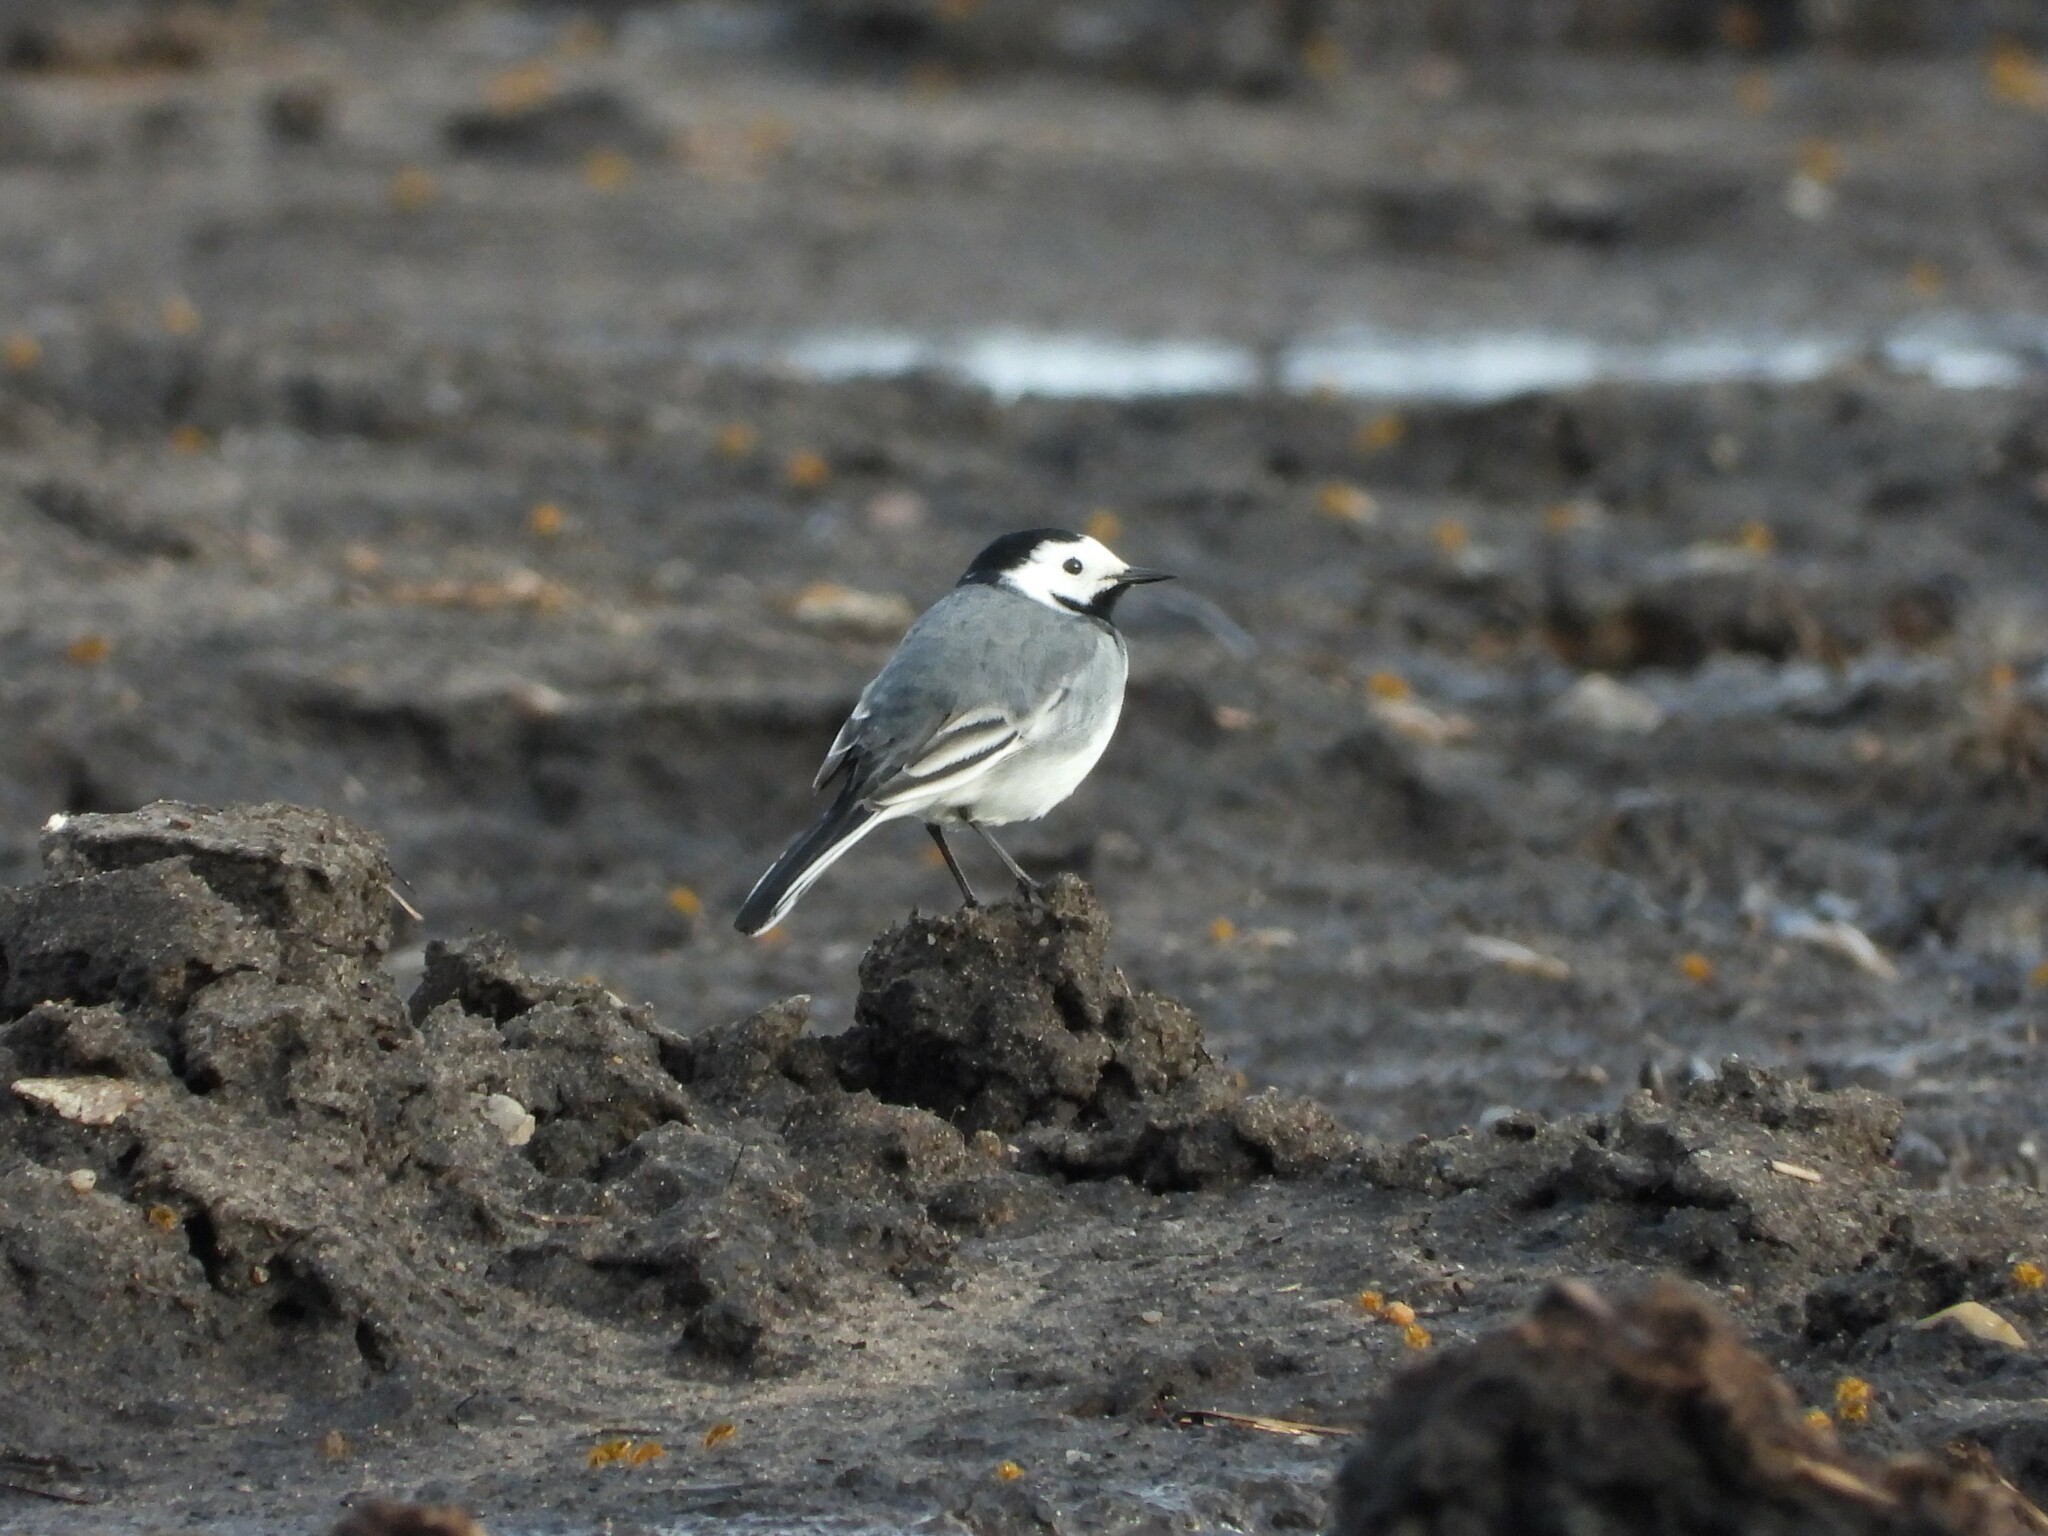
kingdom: Animalia
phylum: Chordata
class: Aves
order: Passeriformes
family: Motacillidae
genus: Motacilla
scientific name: Motacilla alba
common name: White wagtail
